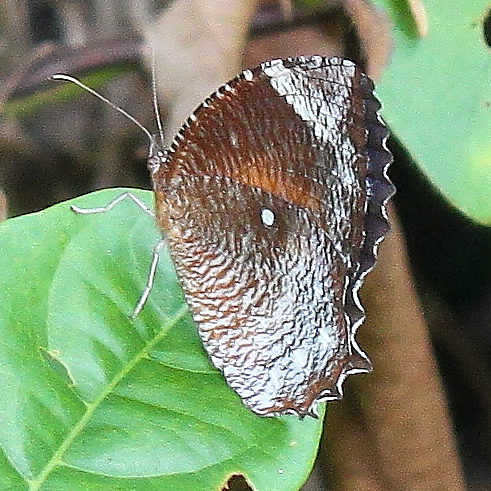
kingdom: Animalia
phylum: Arthropoda
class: Insecta
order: Lepidoptera
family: Nymphalidae
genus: Elymnias
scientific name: Elymnias hypermnestra
